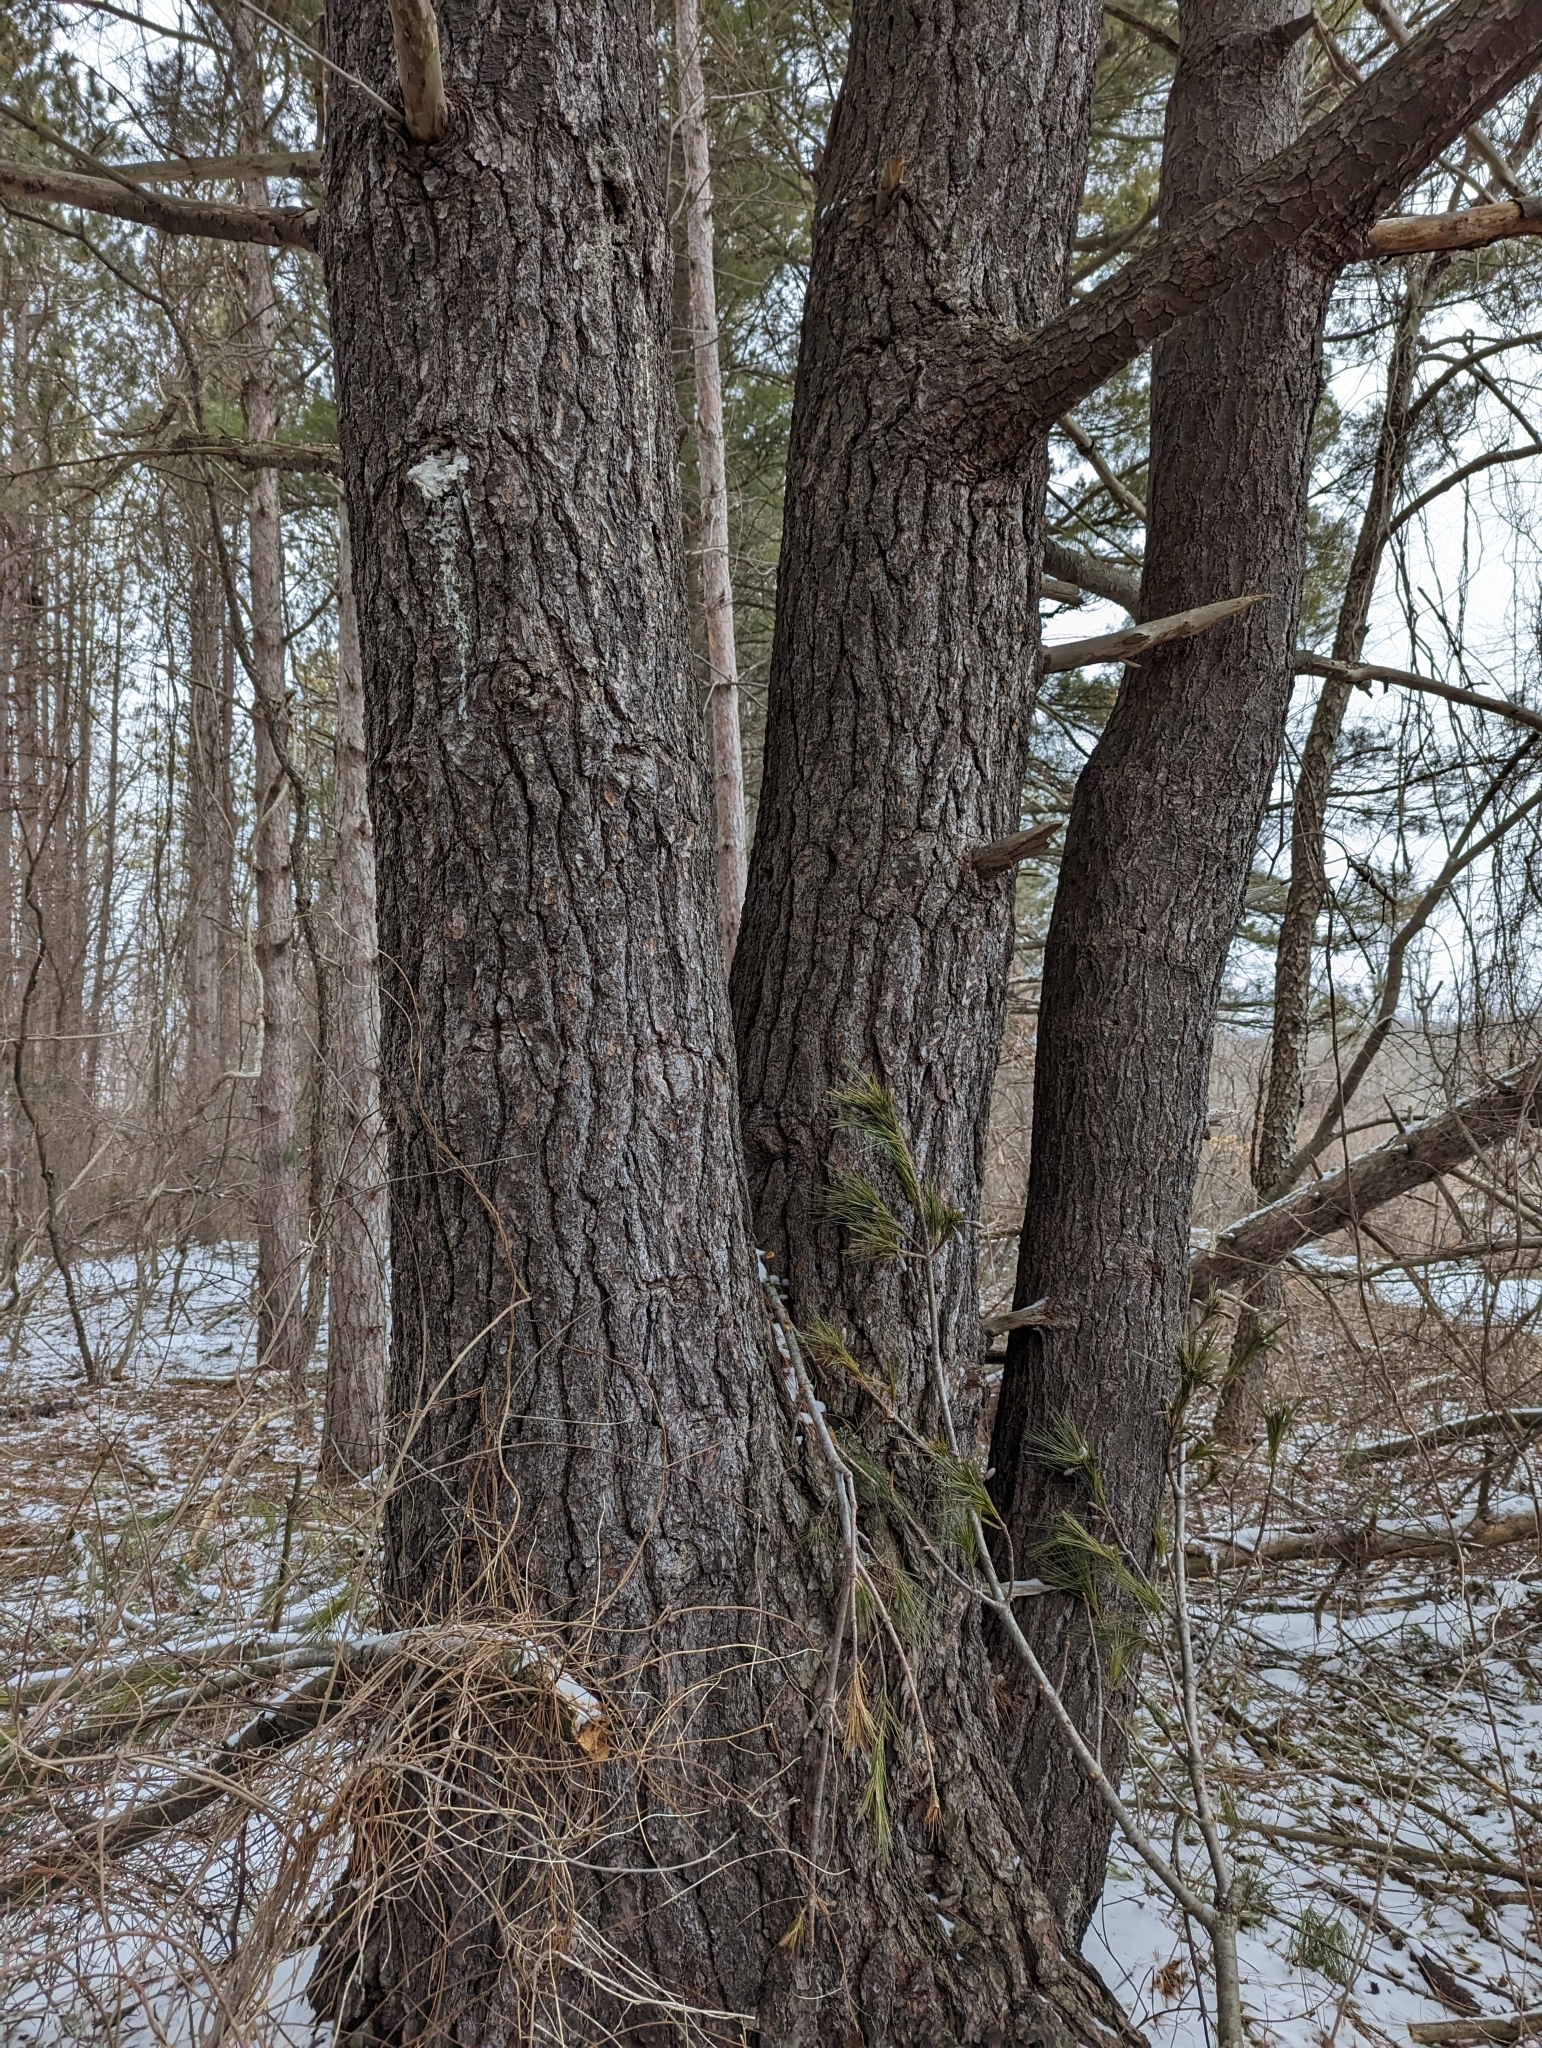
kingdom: Plantae
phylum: Tracheophyta
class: Pinopsida
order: Pinales
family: Pinaceae
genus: Pinus
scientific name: Pinus strobus
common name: Weymouth pine
